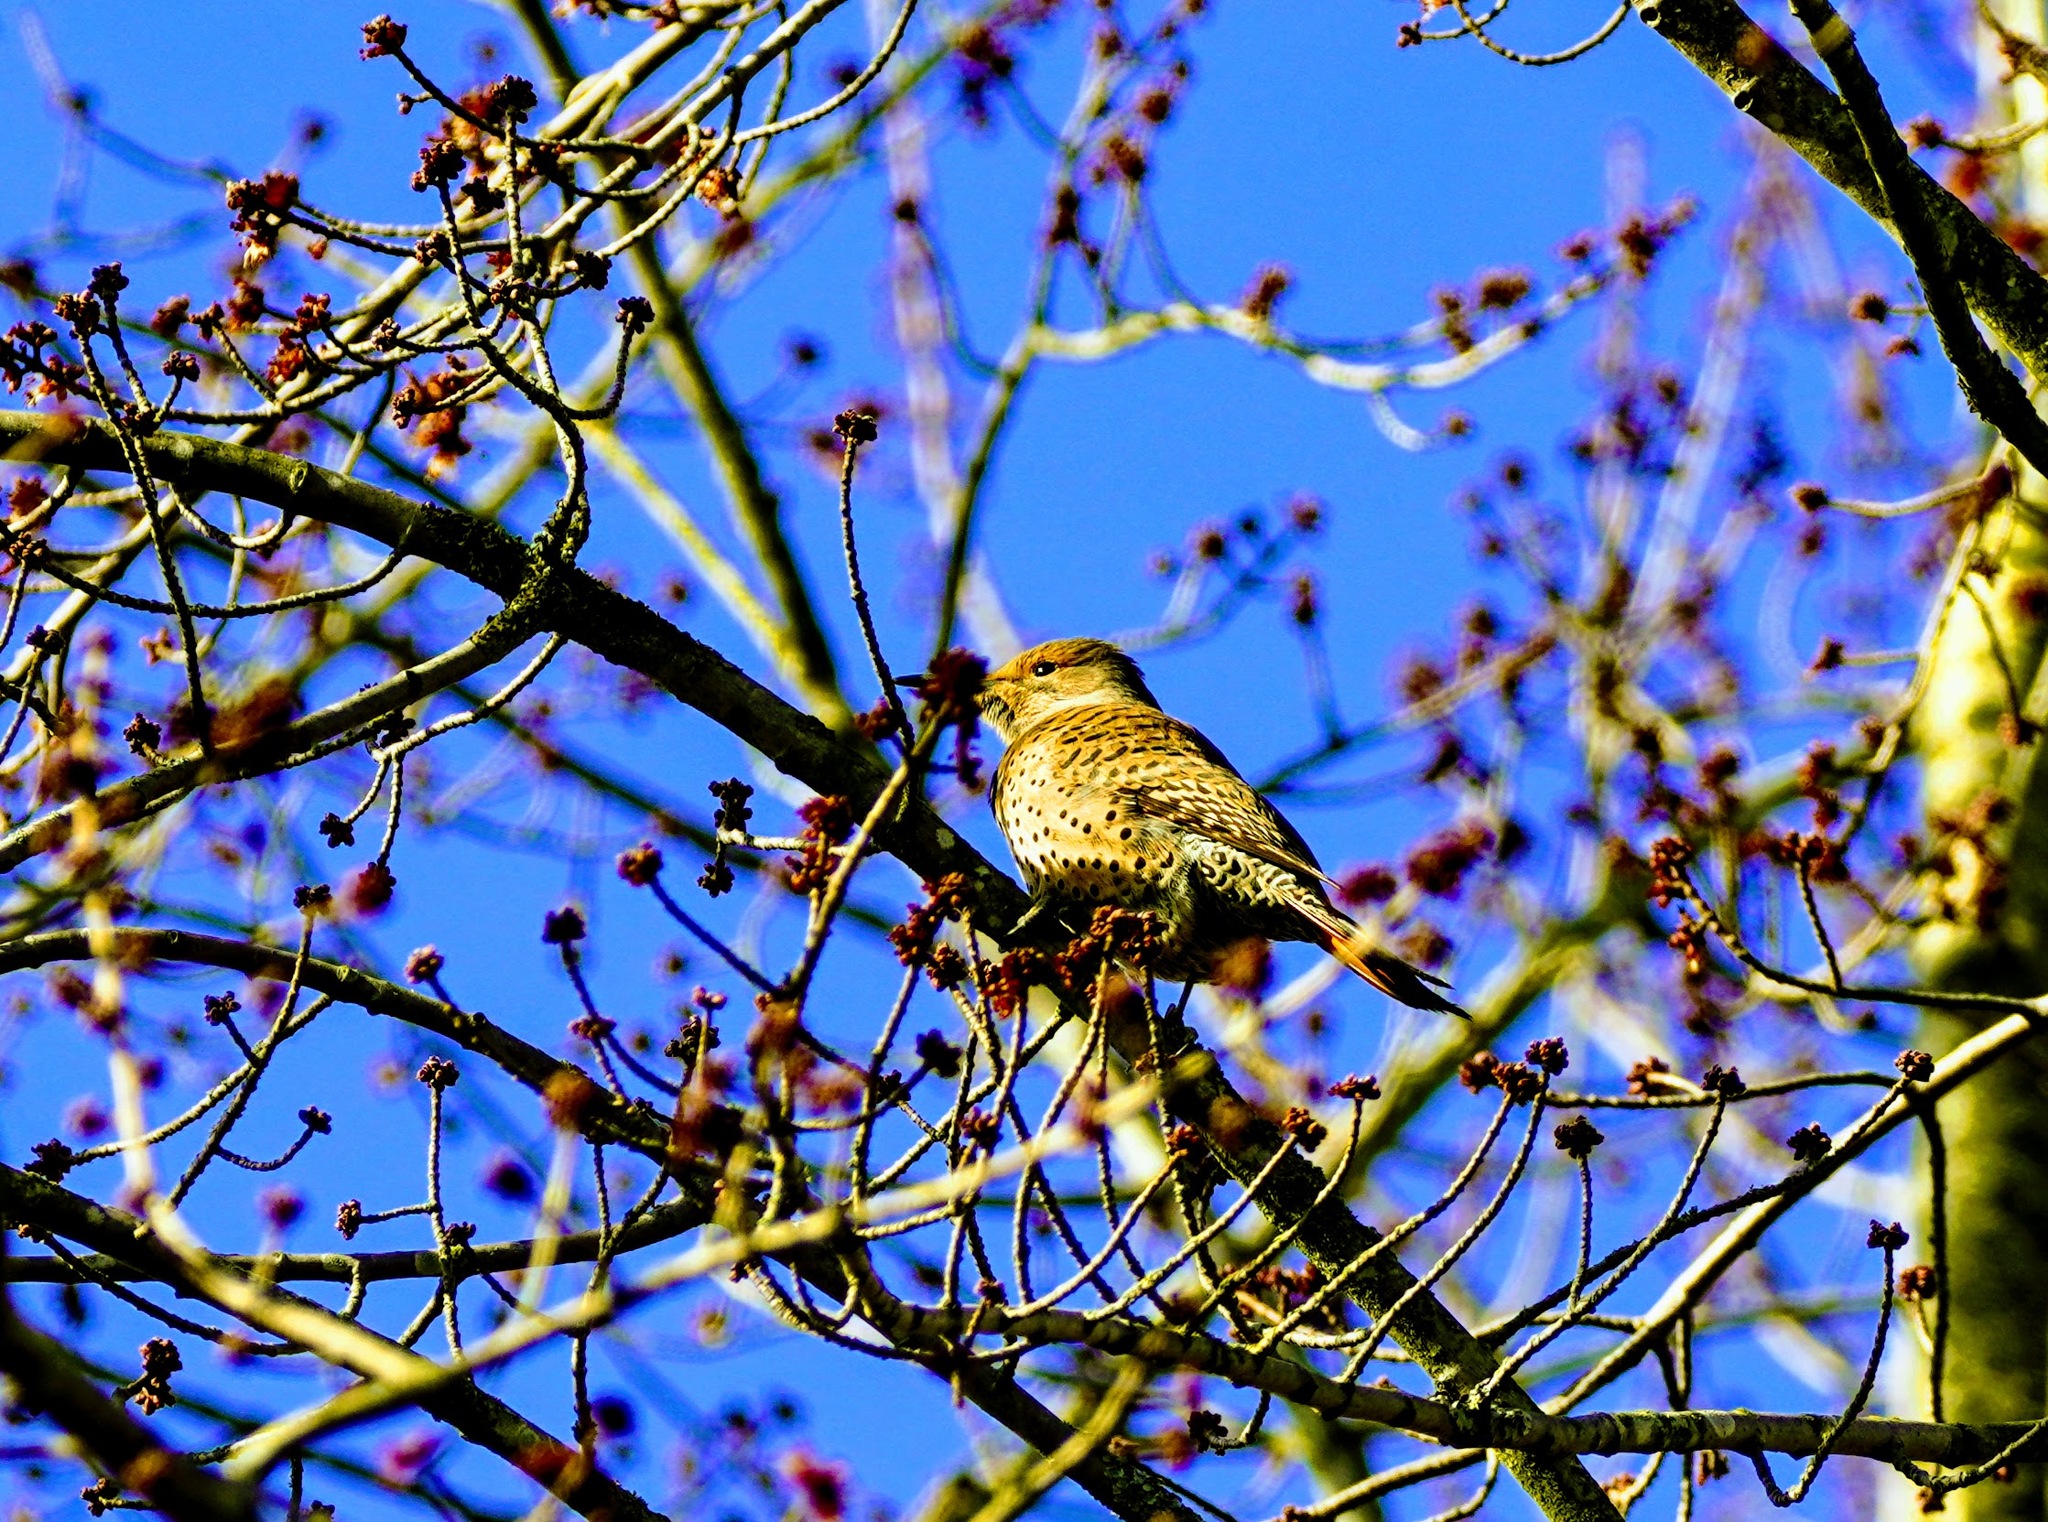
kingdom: Animalia
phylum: Chordata
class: Aves
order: Piciformes
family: Picidae
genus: Colaptes
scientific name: Colaptes auratus
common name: Northern flicker
